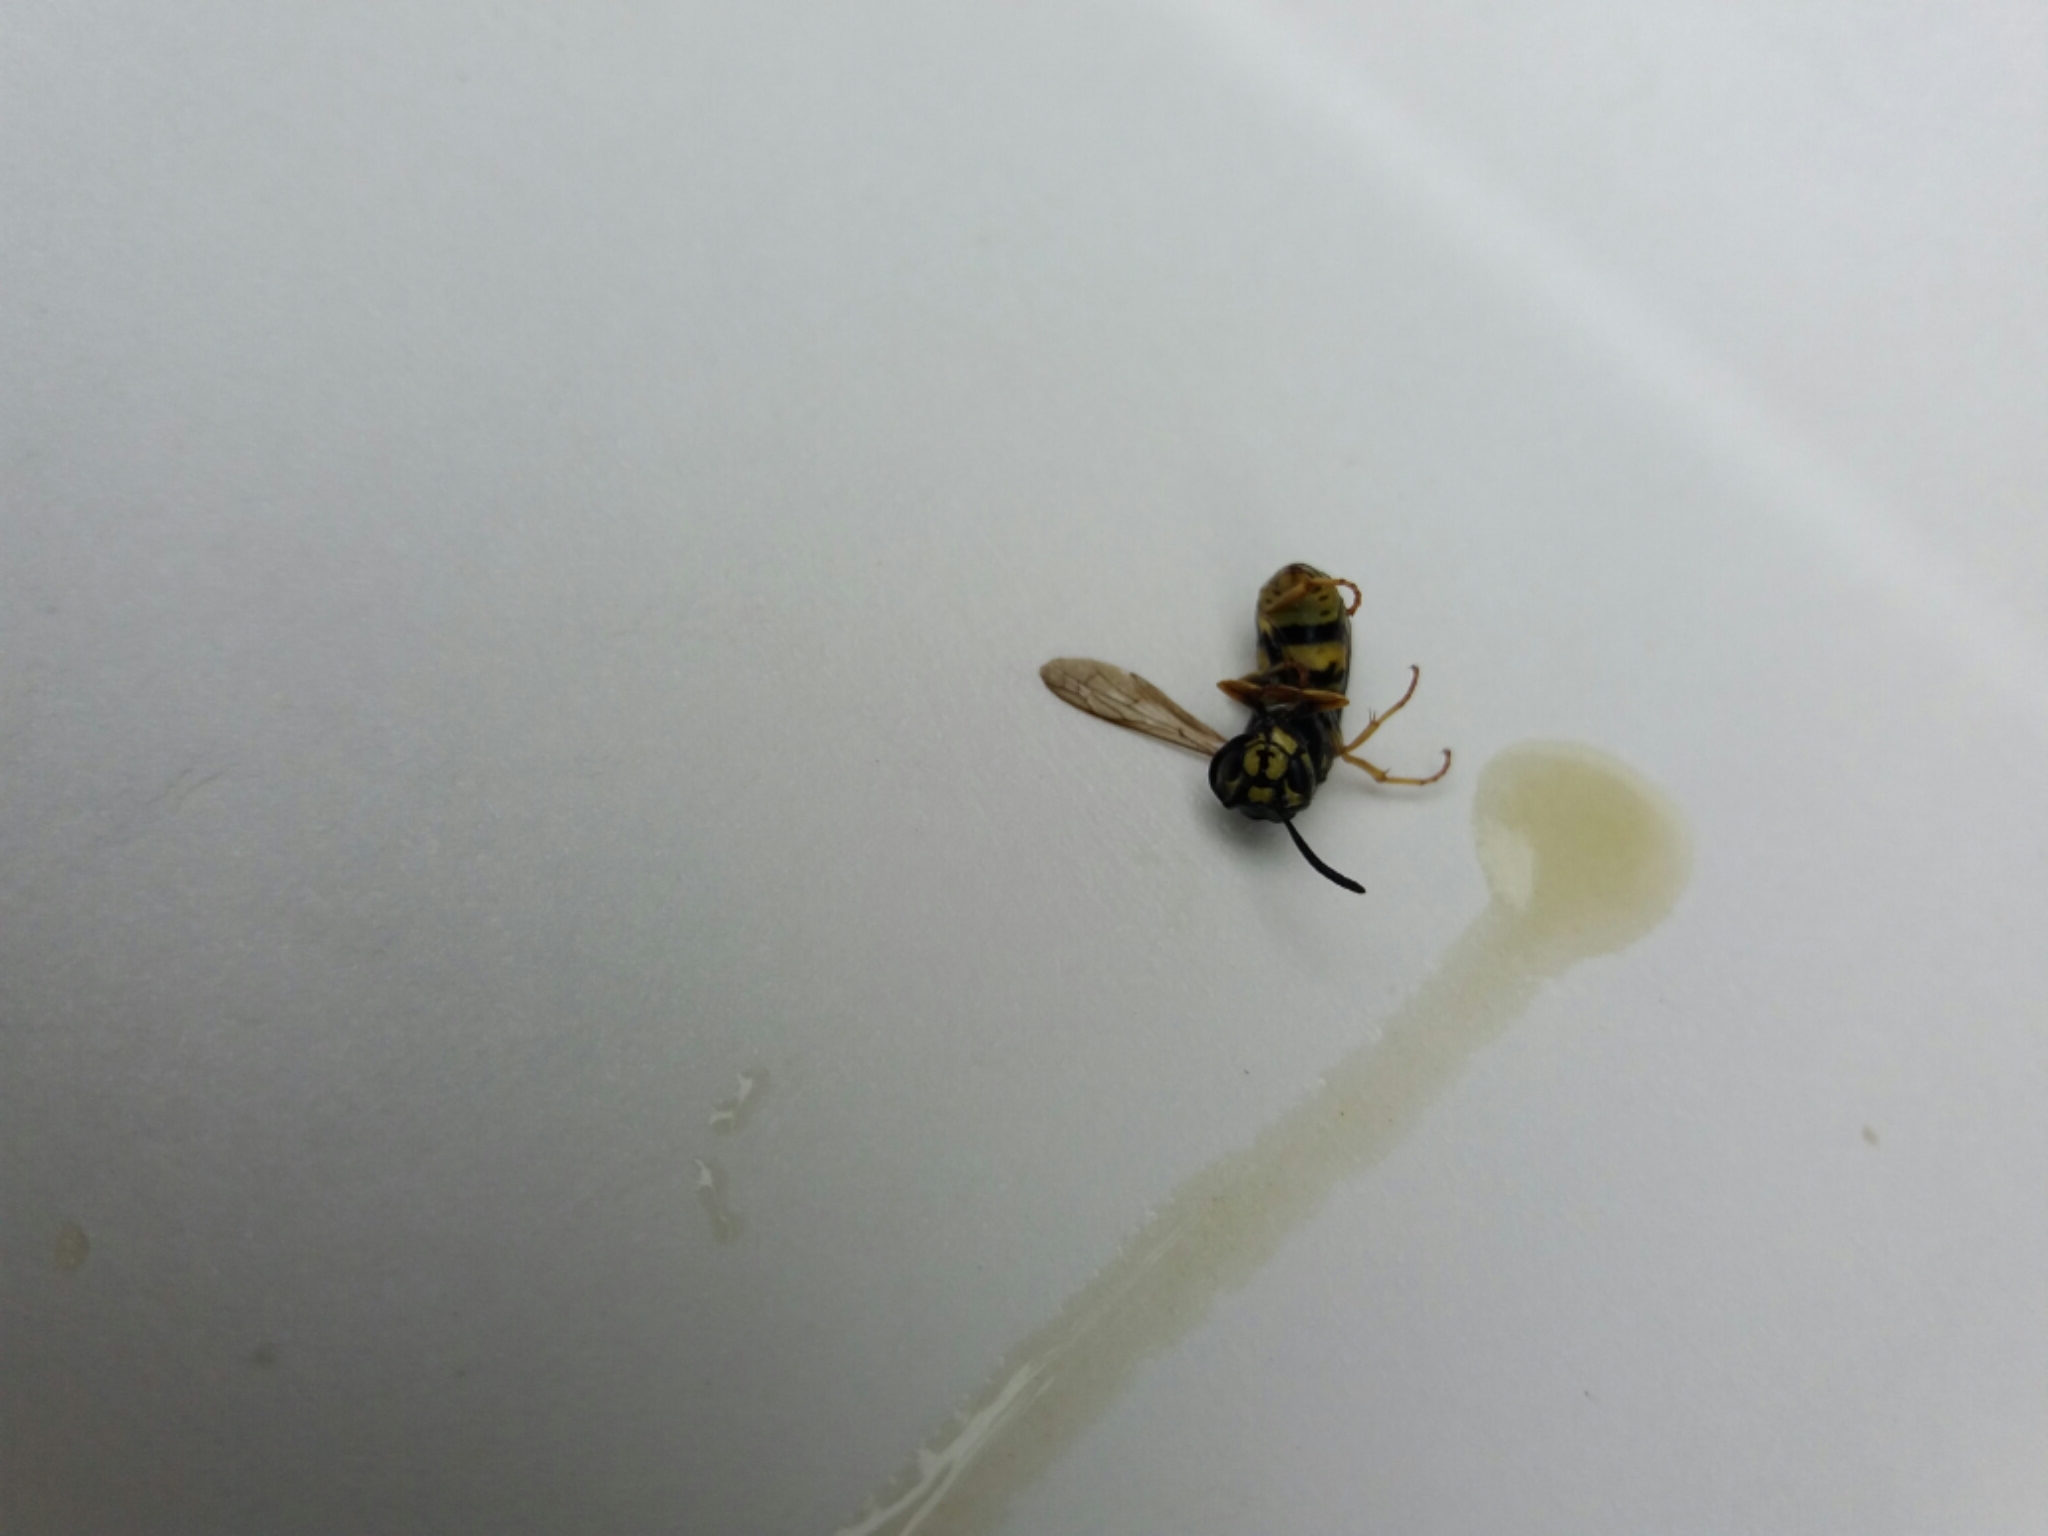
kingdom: Animalia
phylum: Arthropoda
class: Insecta
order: Hymenoptera
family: Vespidae
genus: Vespula
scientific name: Vespula vulgaris
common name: Common wasp
